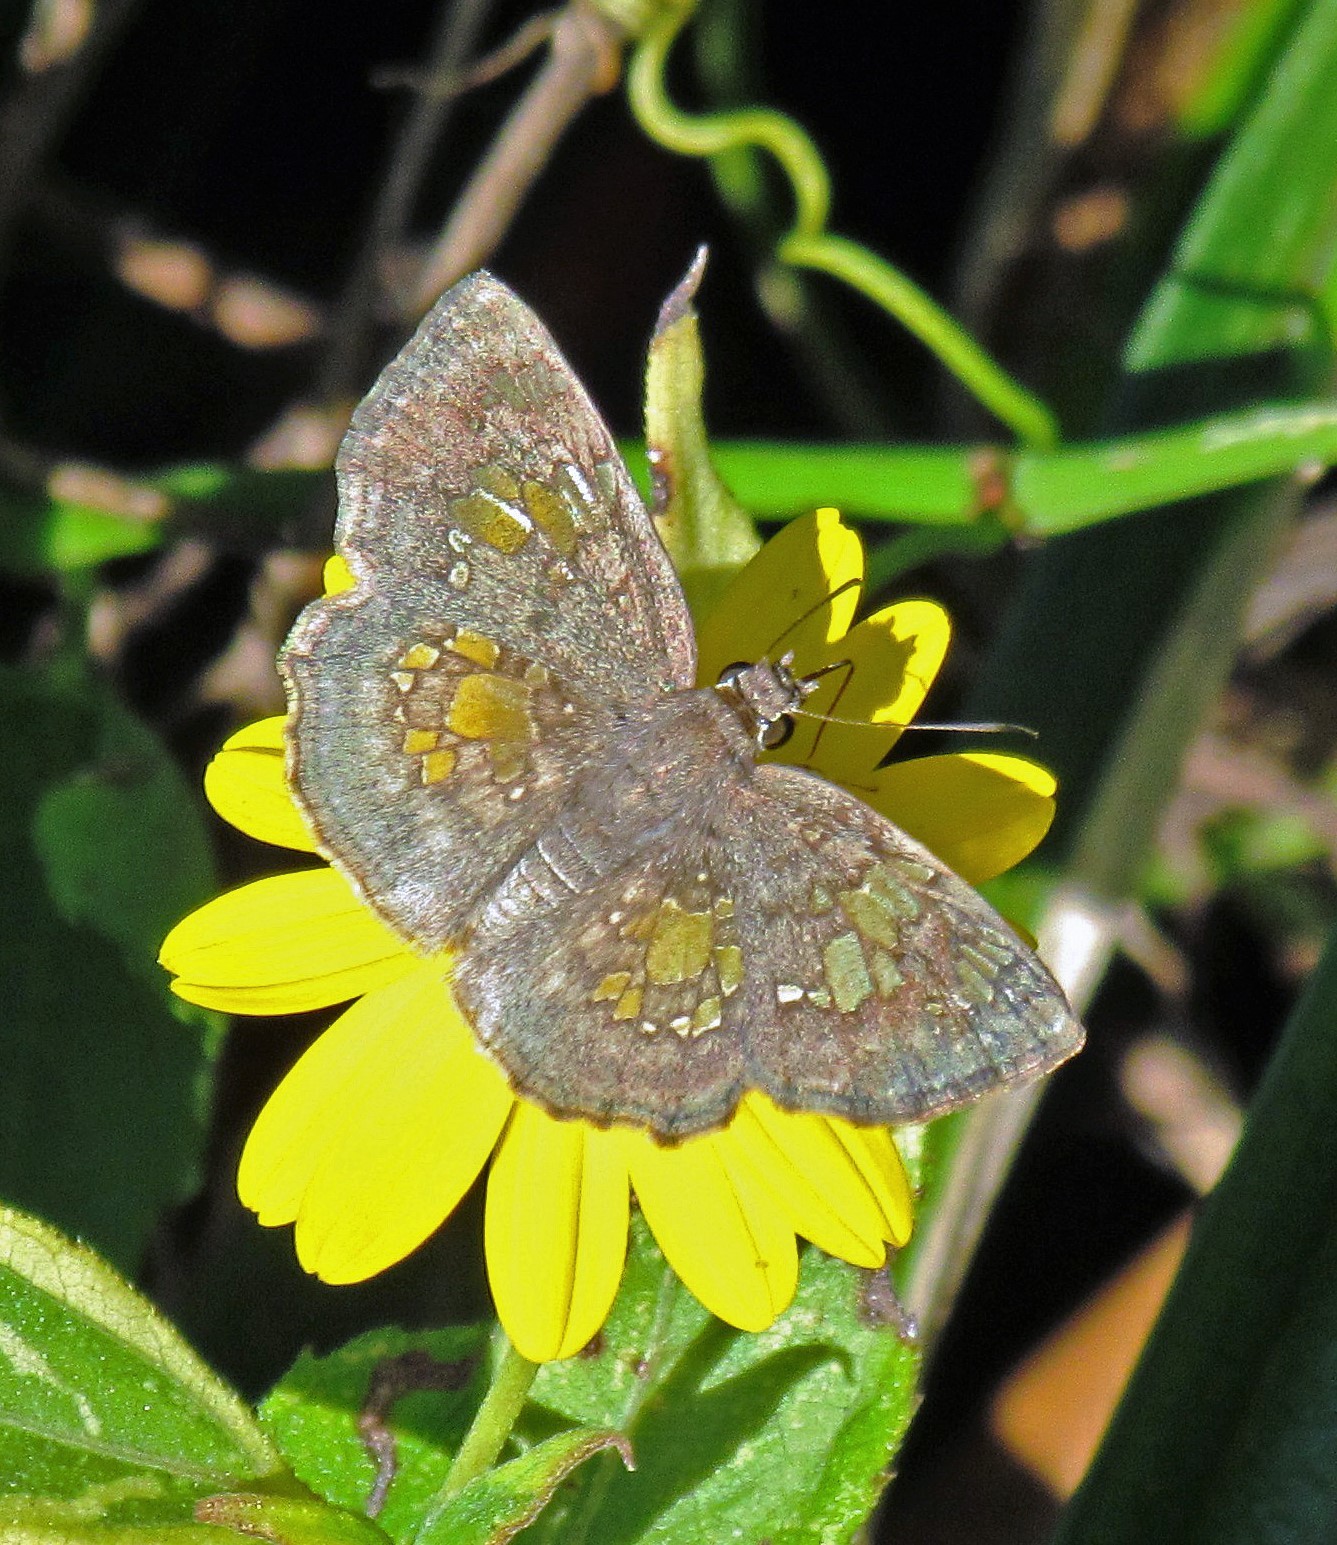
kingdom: Animalia
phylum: Arthropoda
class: Insecta
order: Lepidoptera
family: Hesperiidae
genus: Xenophanes
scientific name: Xenophanes tryxus
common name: Glassy-winged skipper
